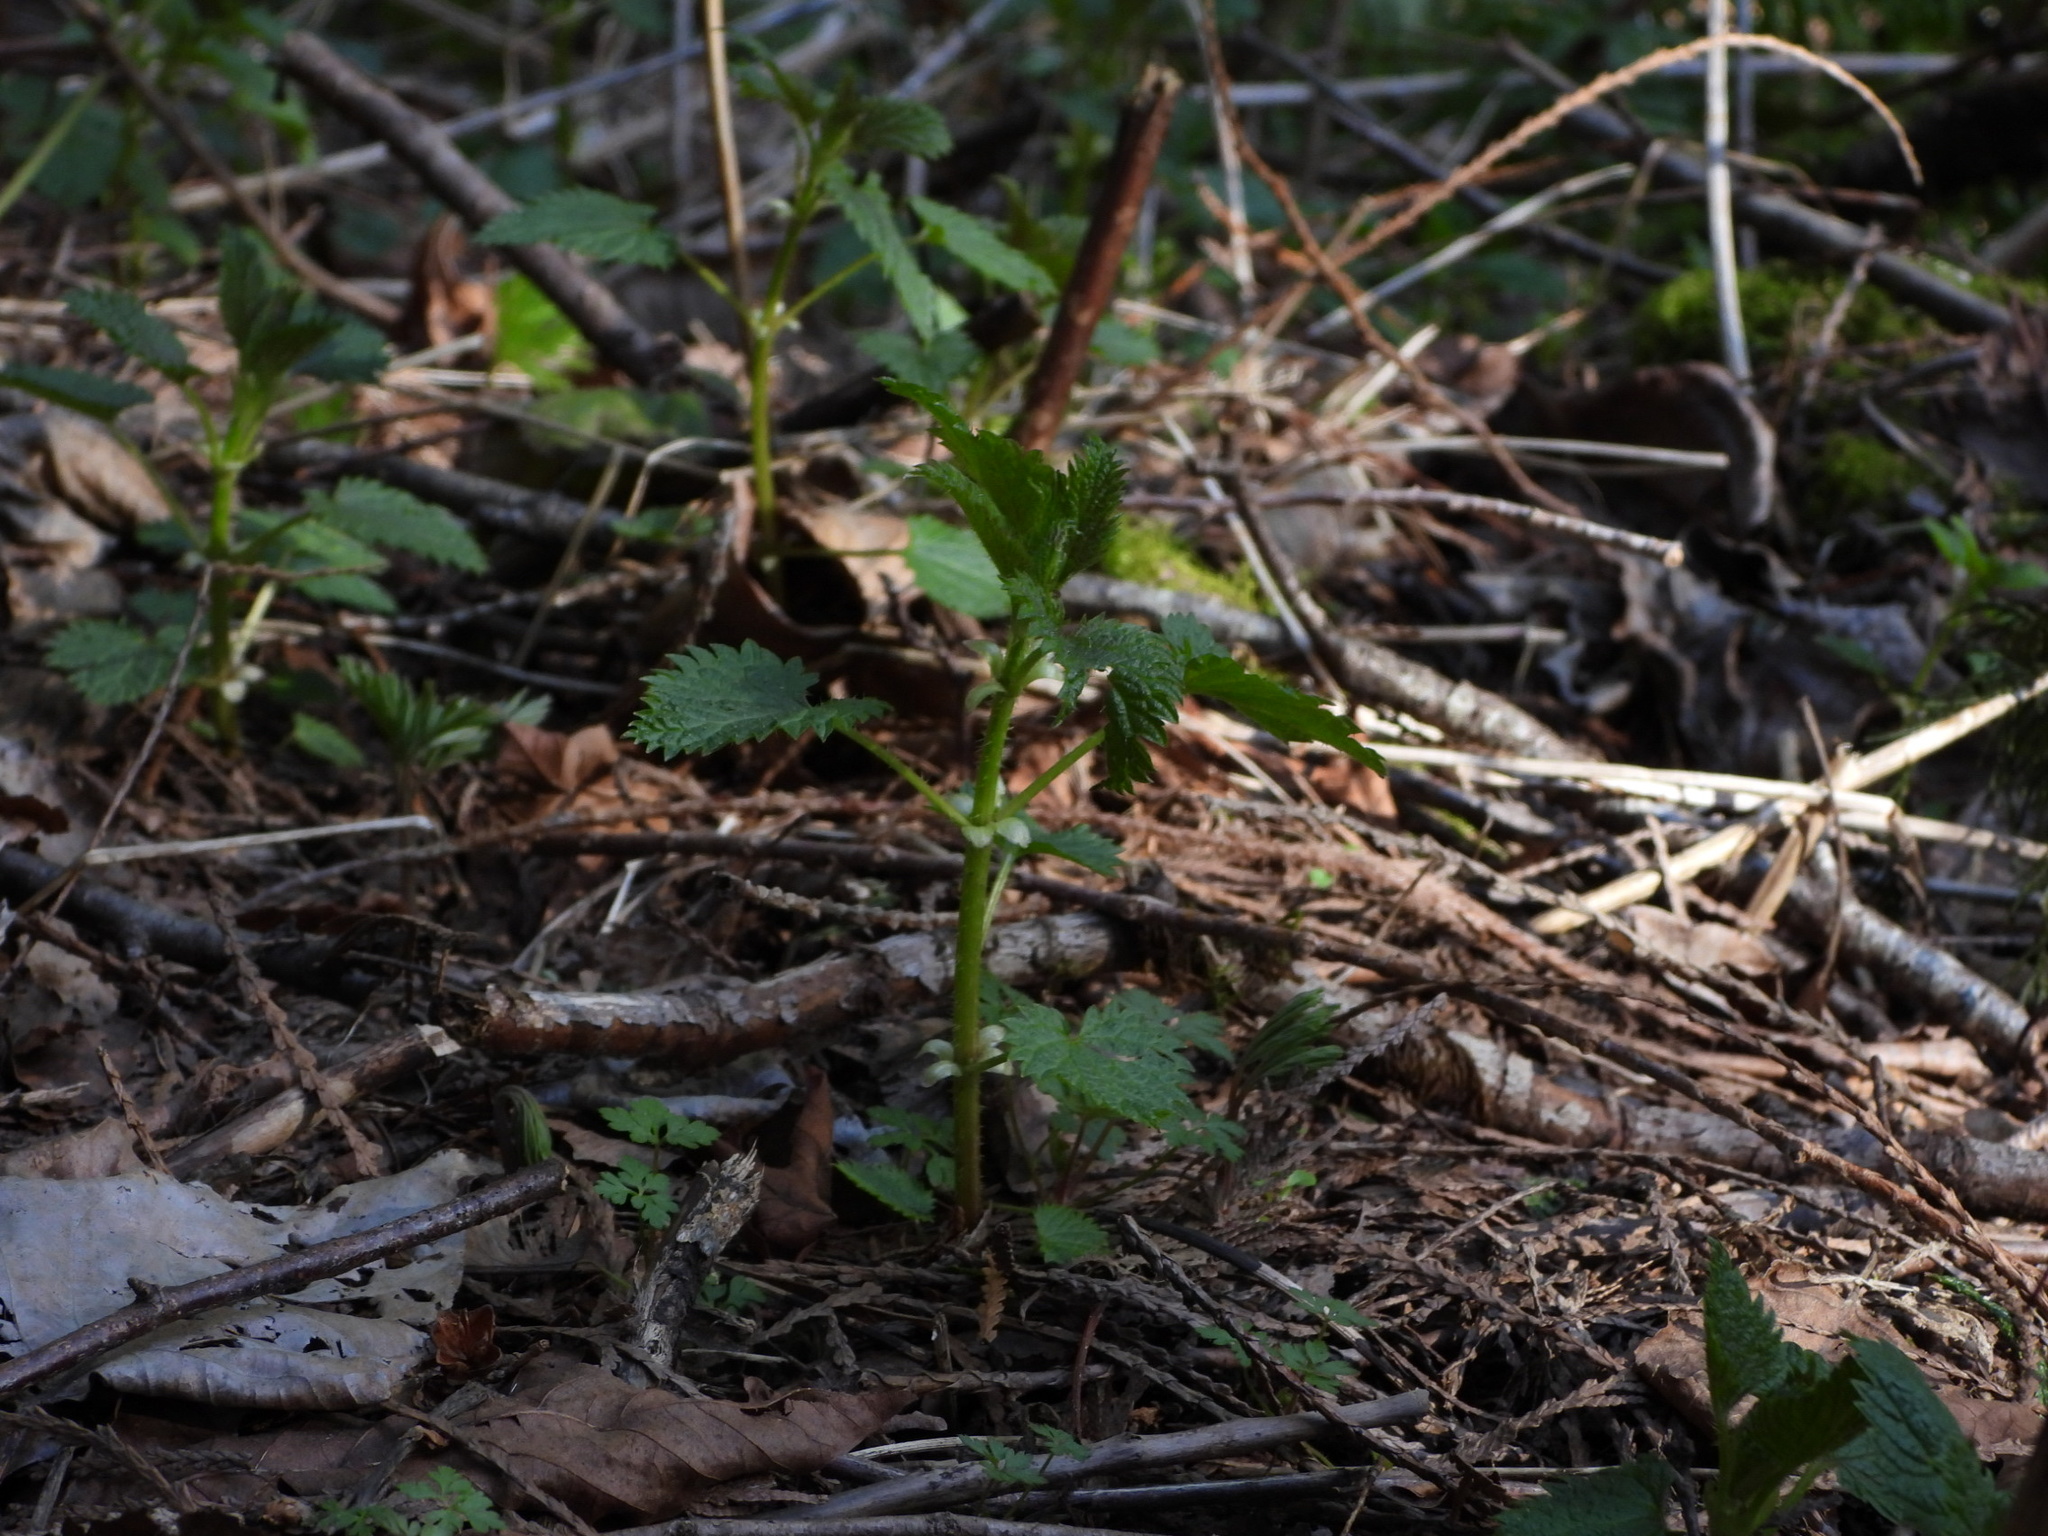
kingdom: Plantae
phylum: Tracheophyta
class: Magnoliopsida
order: Rosales
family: Urticaceae
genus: Urtica
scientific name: Urtica dioica
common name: Common nettle
